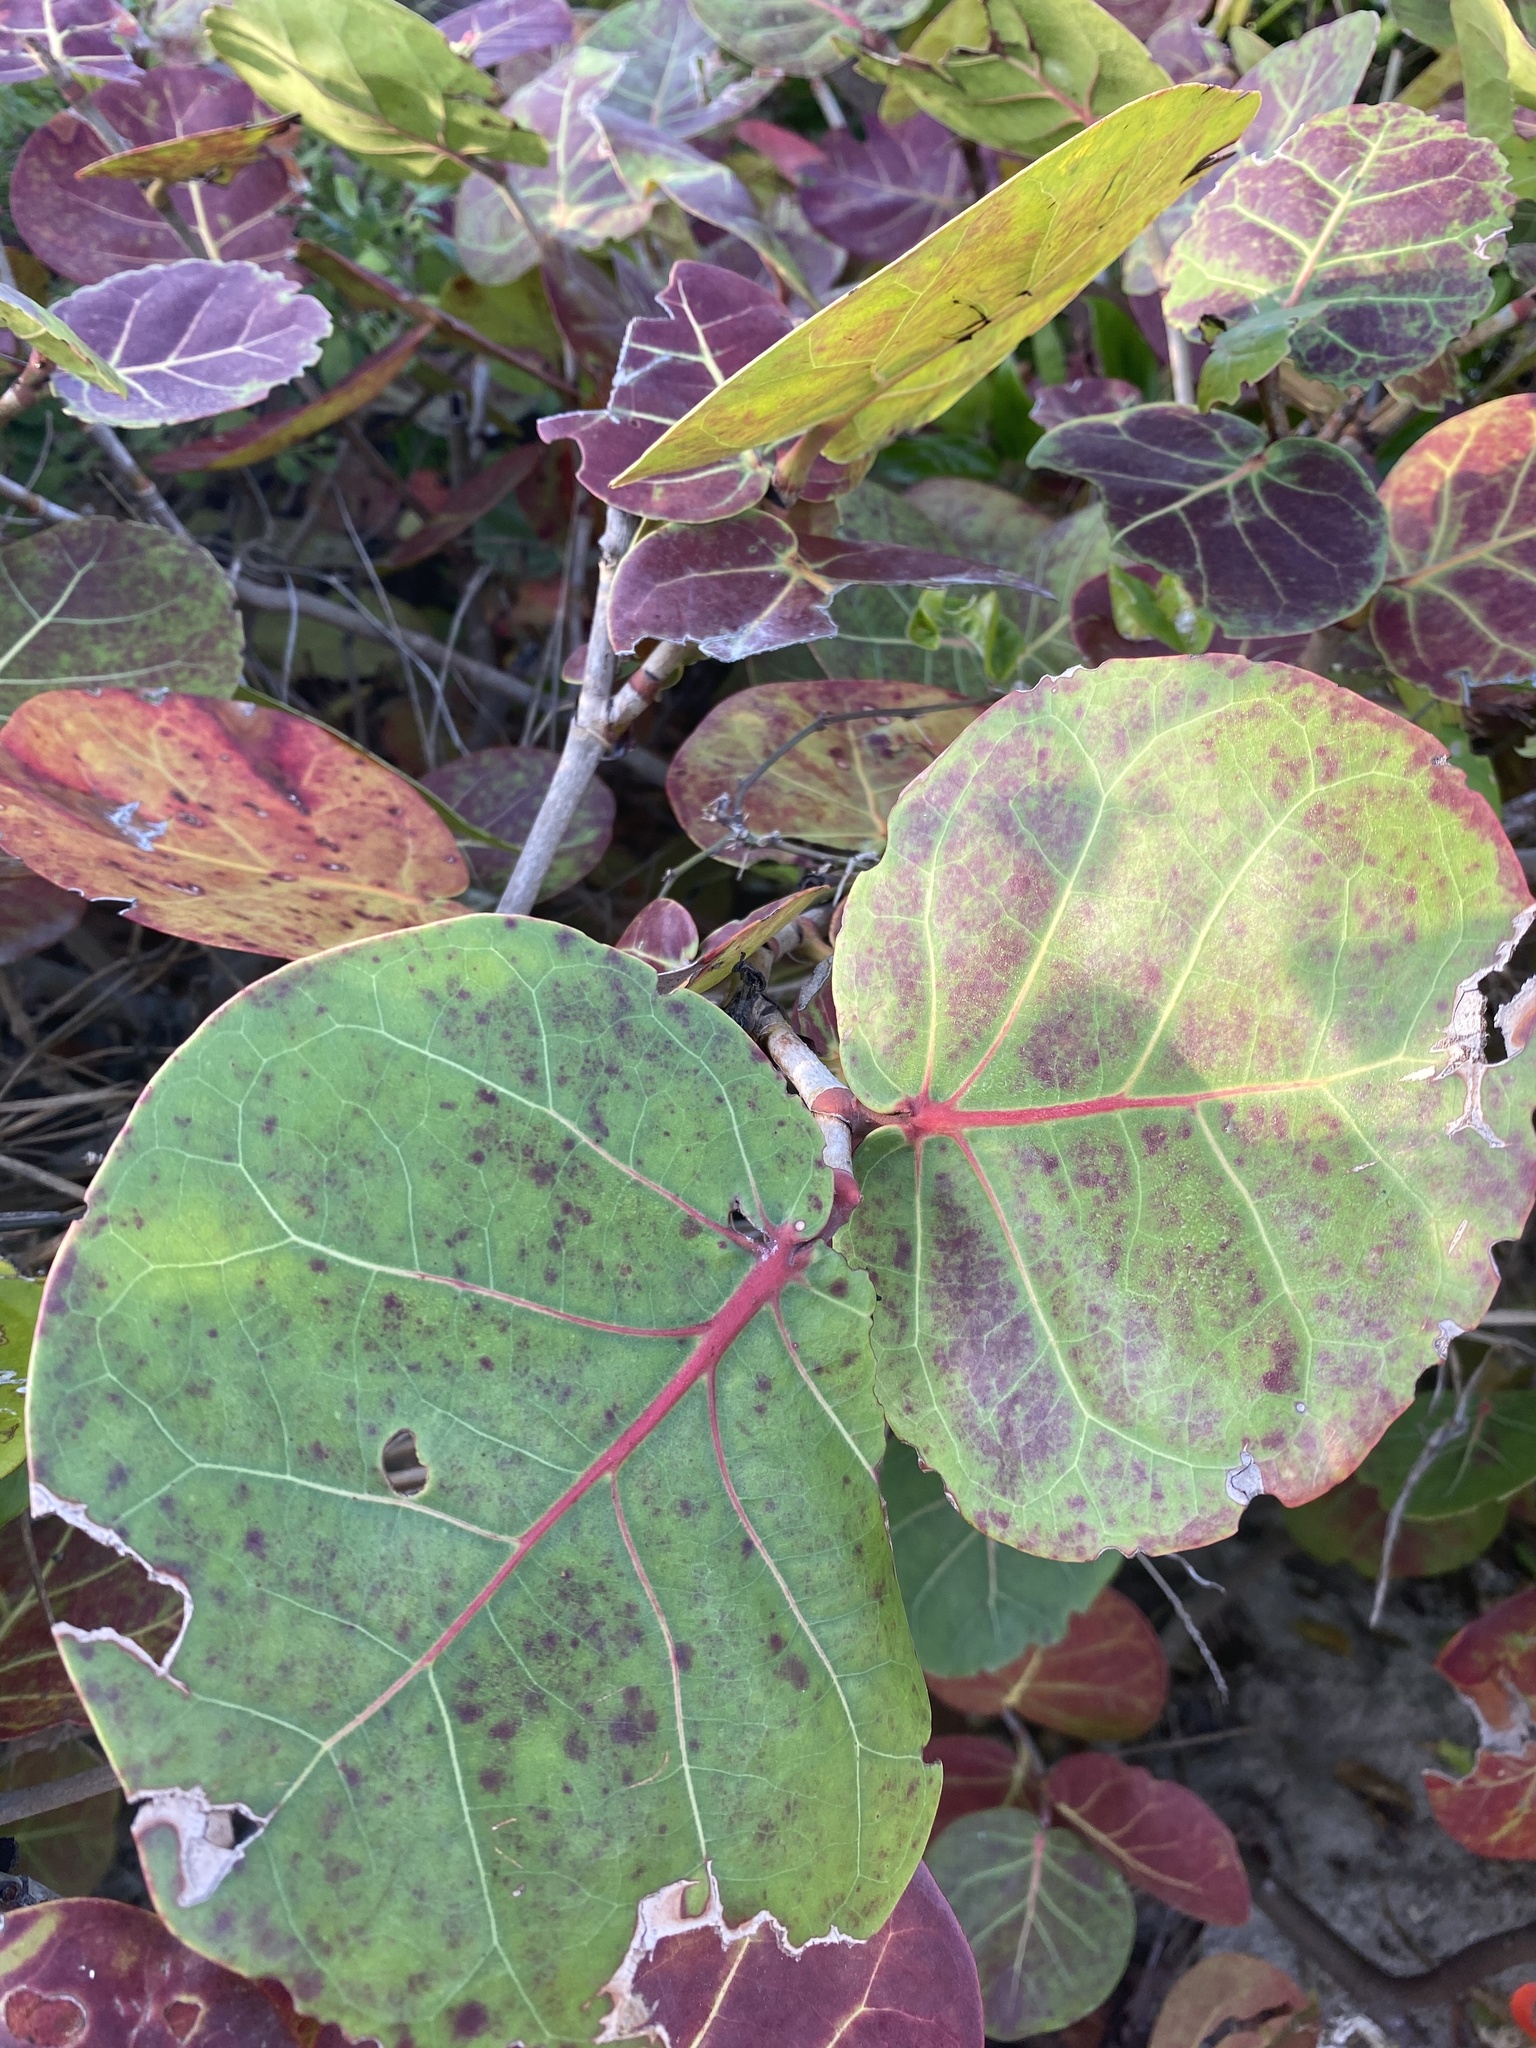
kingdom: Plantae
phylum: Tracheophyta
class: Magnoliopsida
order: Caryophyllales
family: Polygonaceae
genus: Coccoloba
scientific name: Coccoloba uvifera
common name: Seagrape
